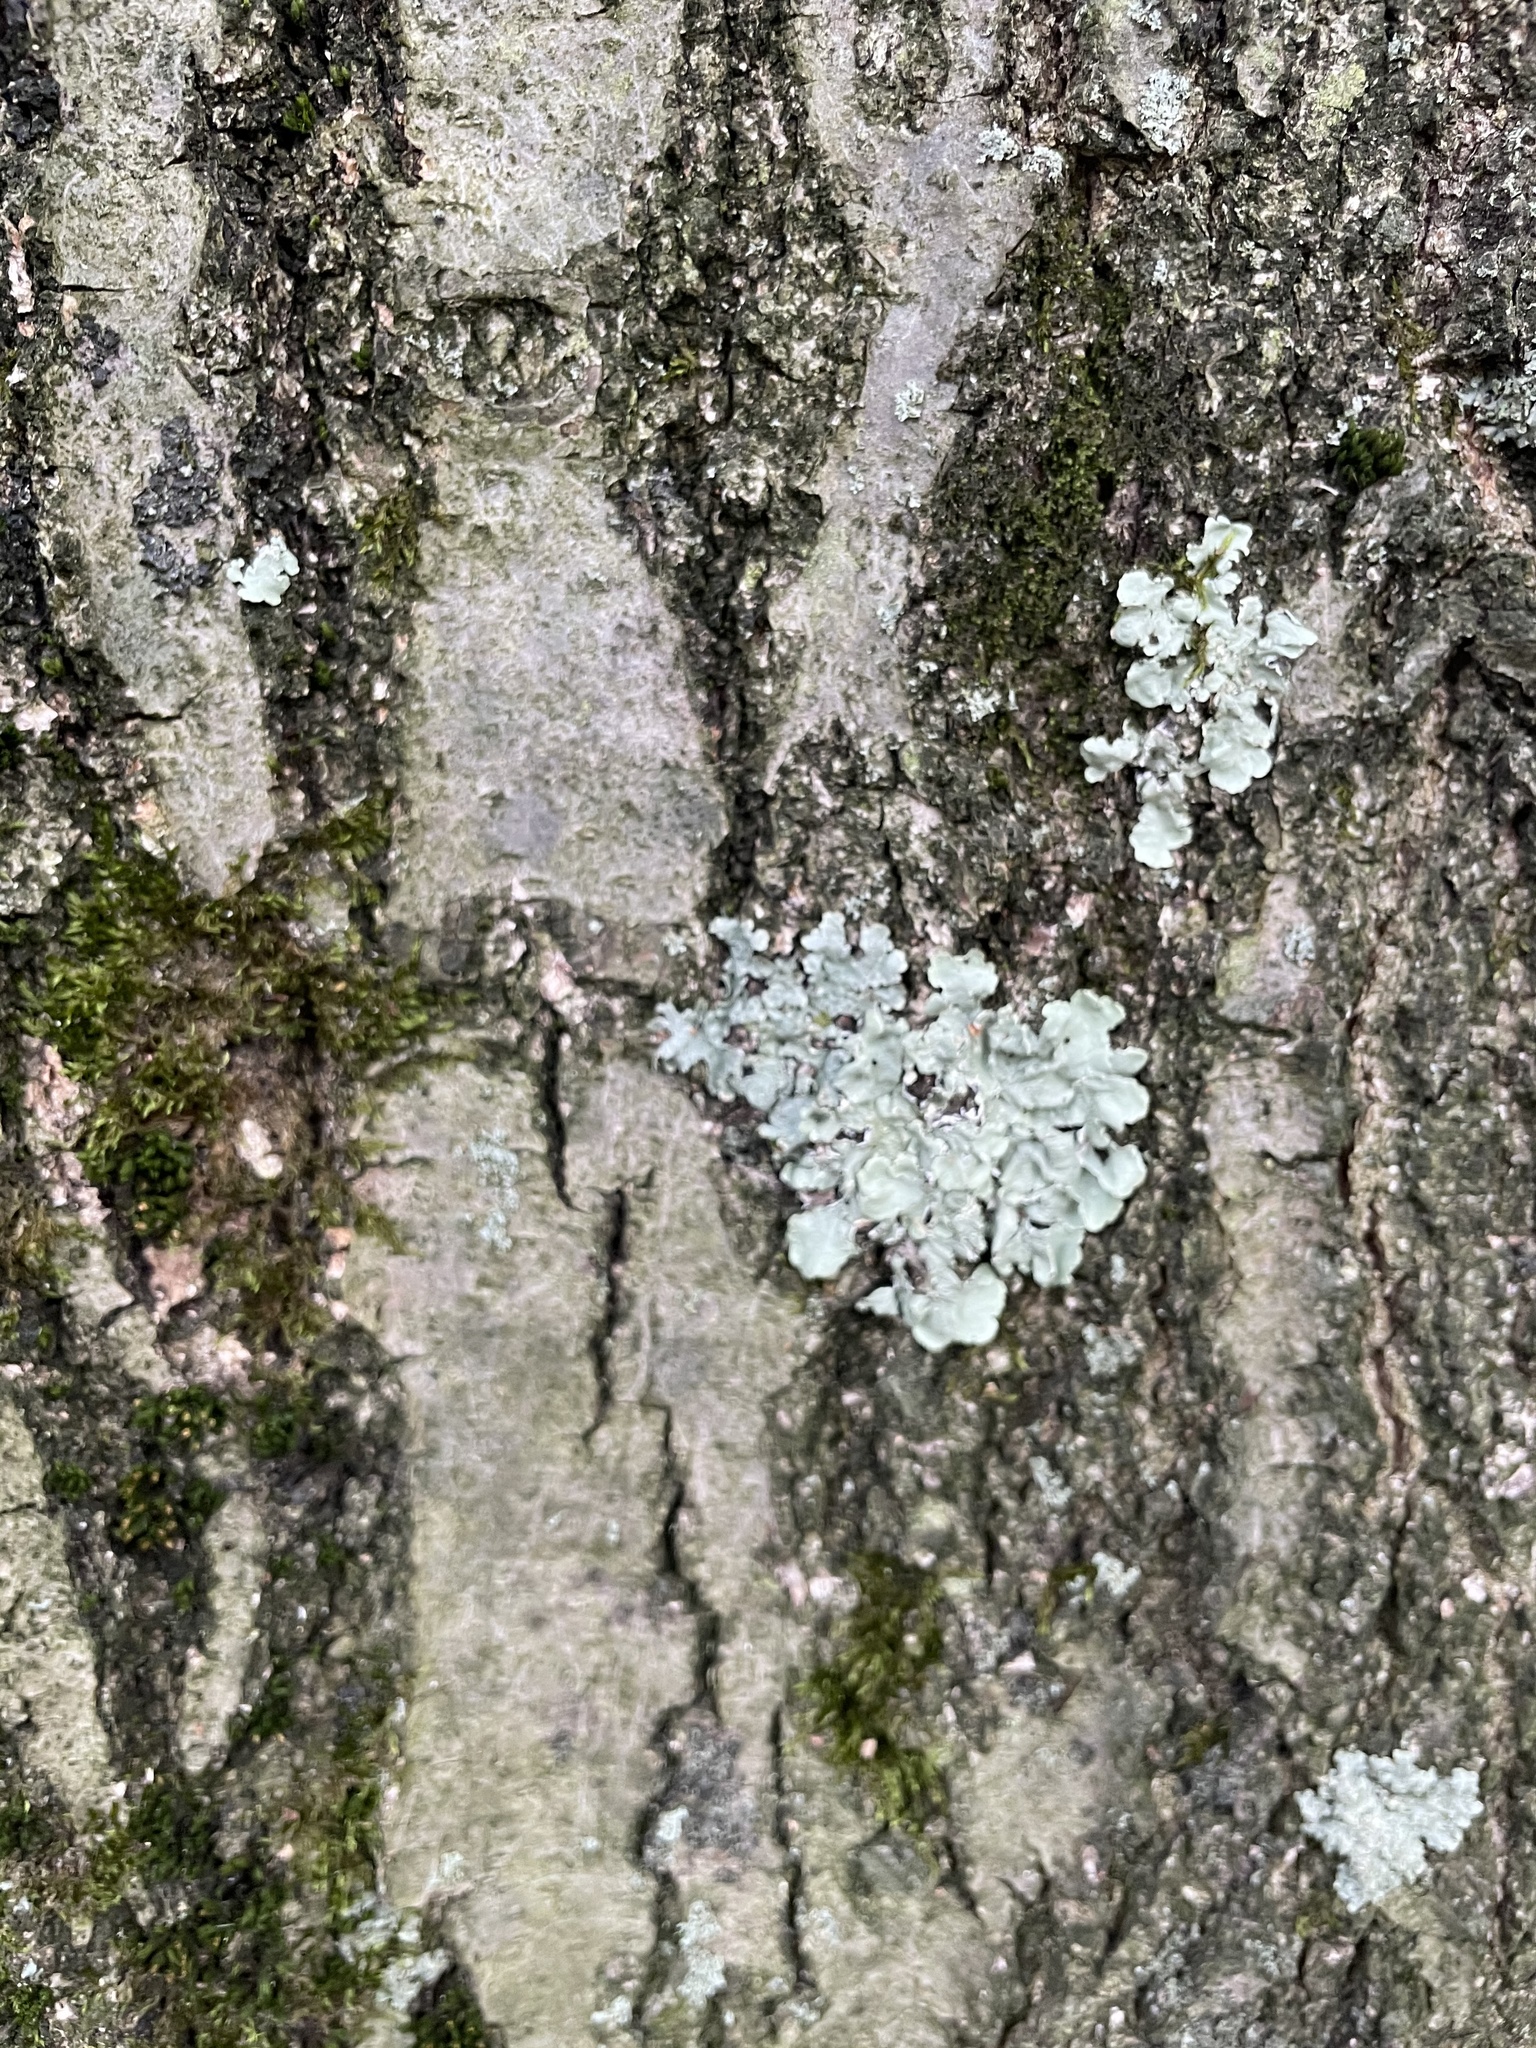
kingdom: Fungi
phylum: Ascomycota
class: Lecanoromycetes
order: Lecanorales
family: Parmeliaceae
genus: Flavoparmelia
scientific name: Flavoparmelia caperata
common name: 40-mile per hour lichen
